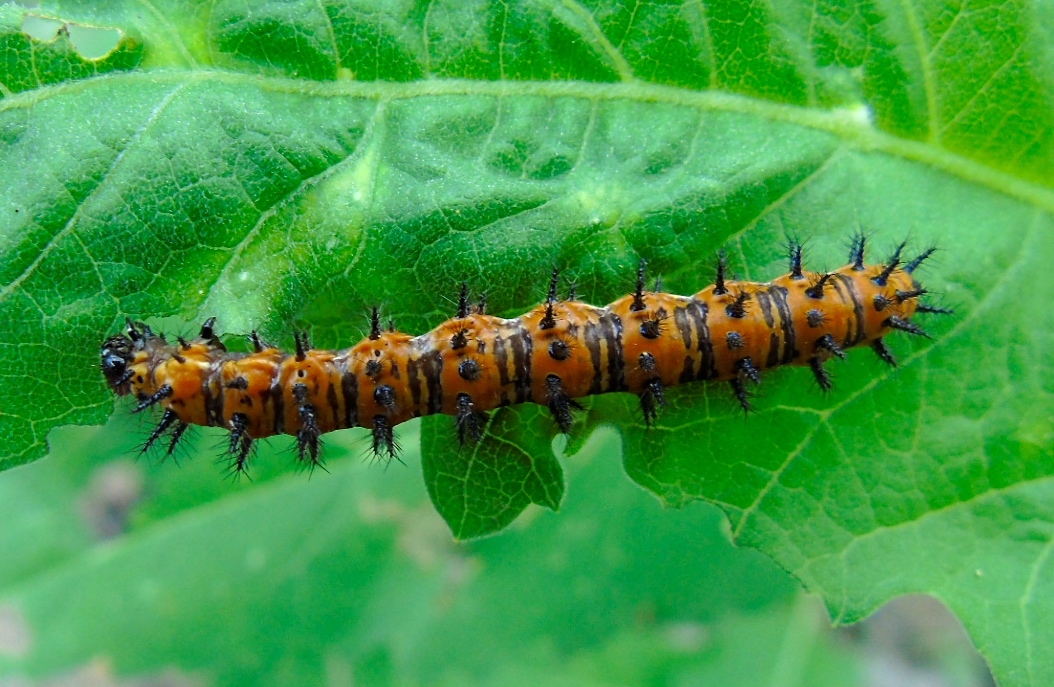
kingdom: Animalia
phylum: Arthropoda
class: Insecta
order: Lepidoptera
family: Nymphalidae
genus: Dione
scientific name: Dione vanillae
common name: Gulf fritillary
